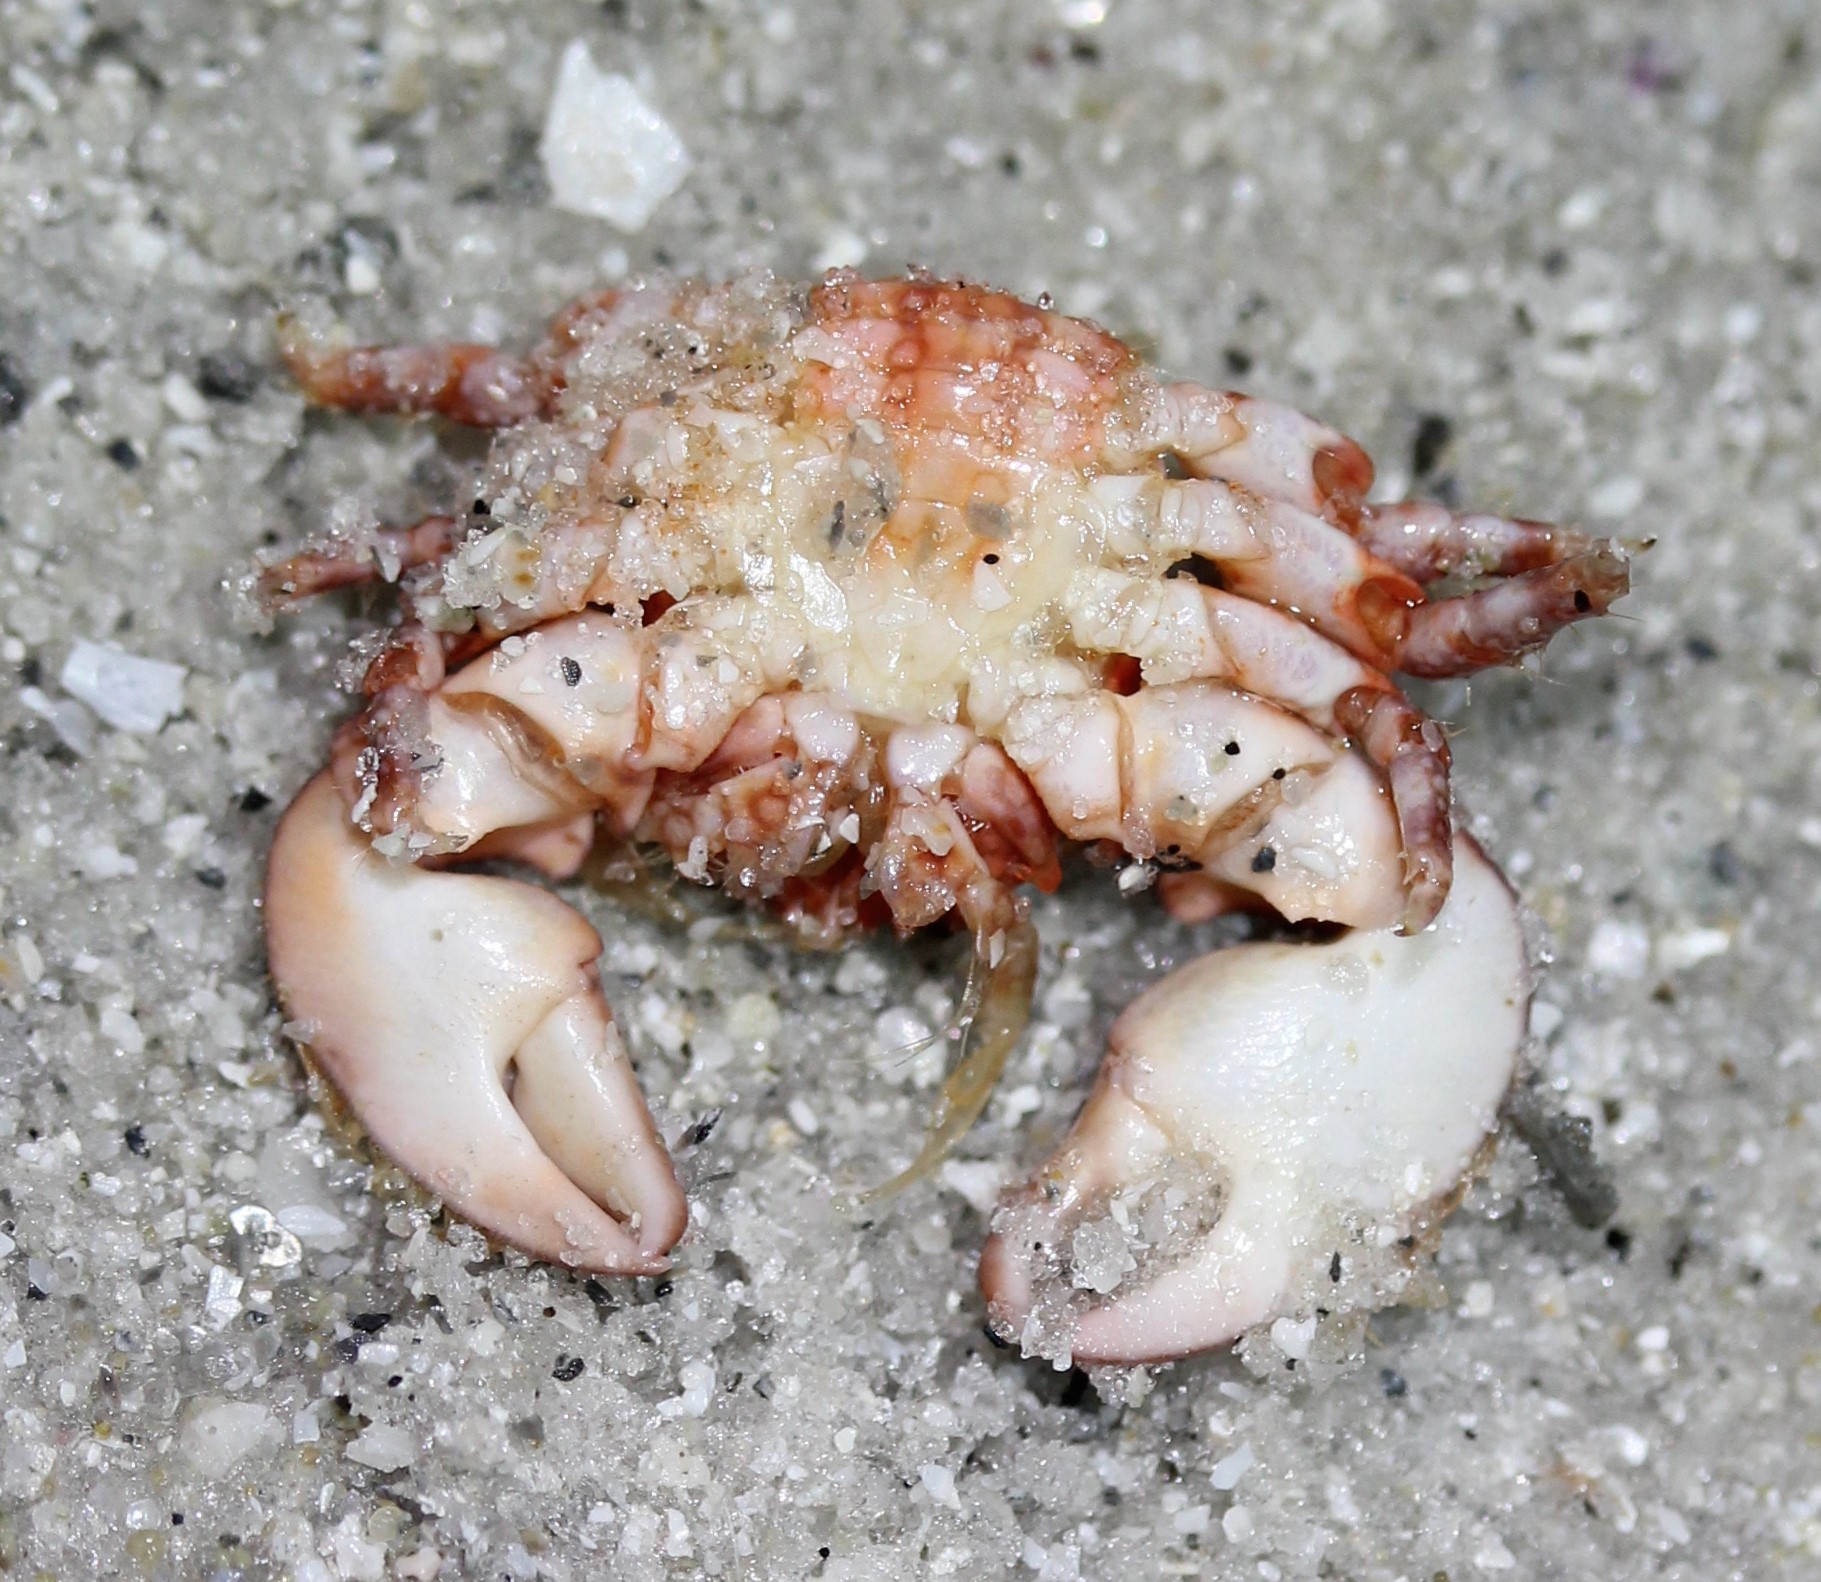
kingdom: Animalia
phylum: Arthropoda
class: Malacostraca
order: Decapoda
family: Porcellanidae
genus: Porcellana
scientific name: Porcellana sayana
